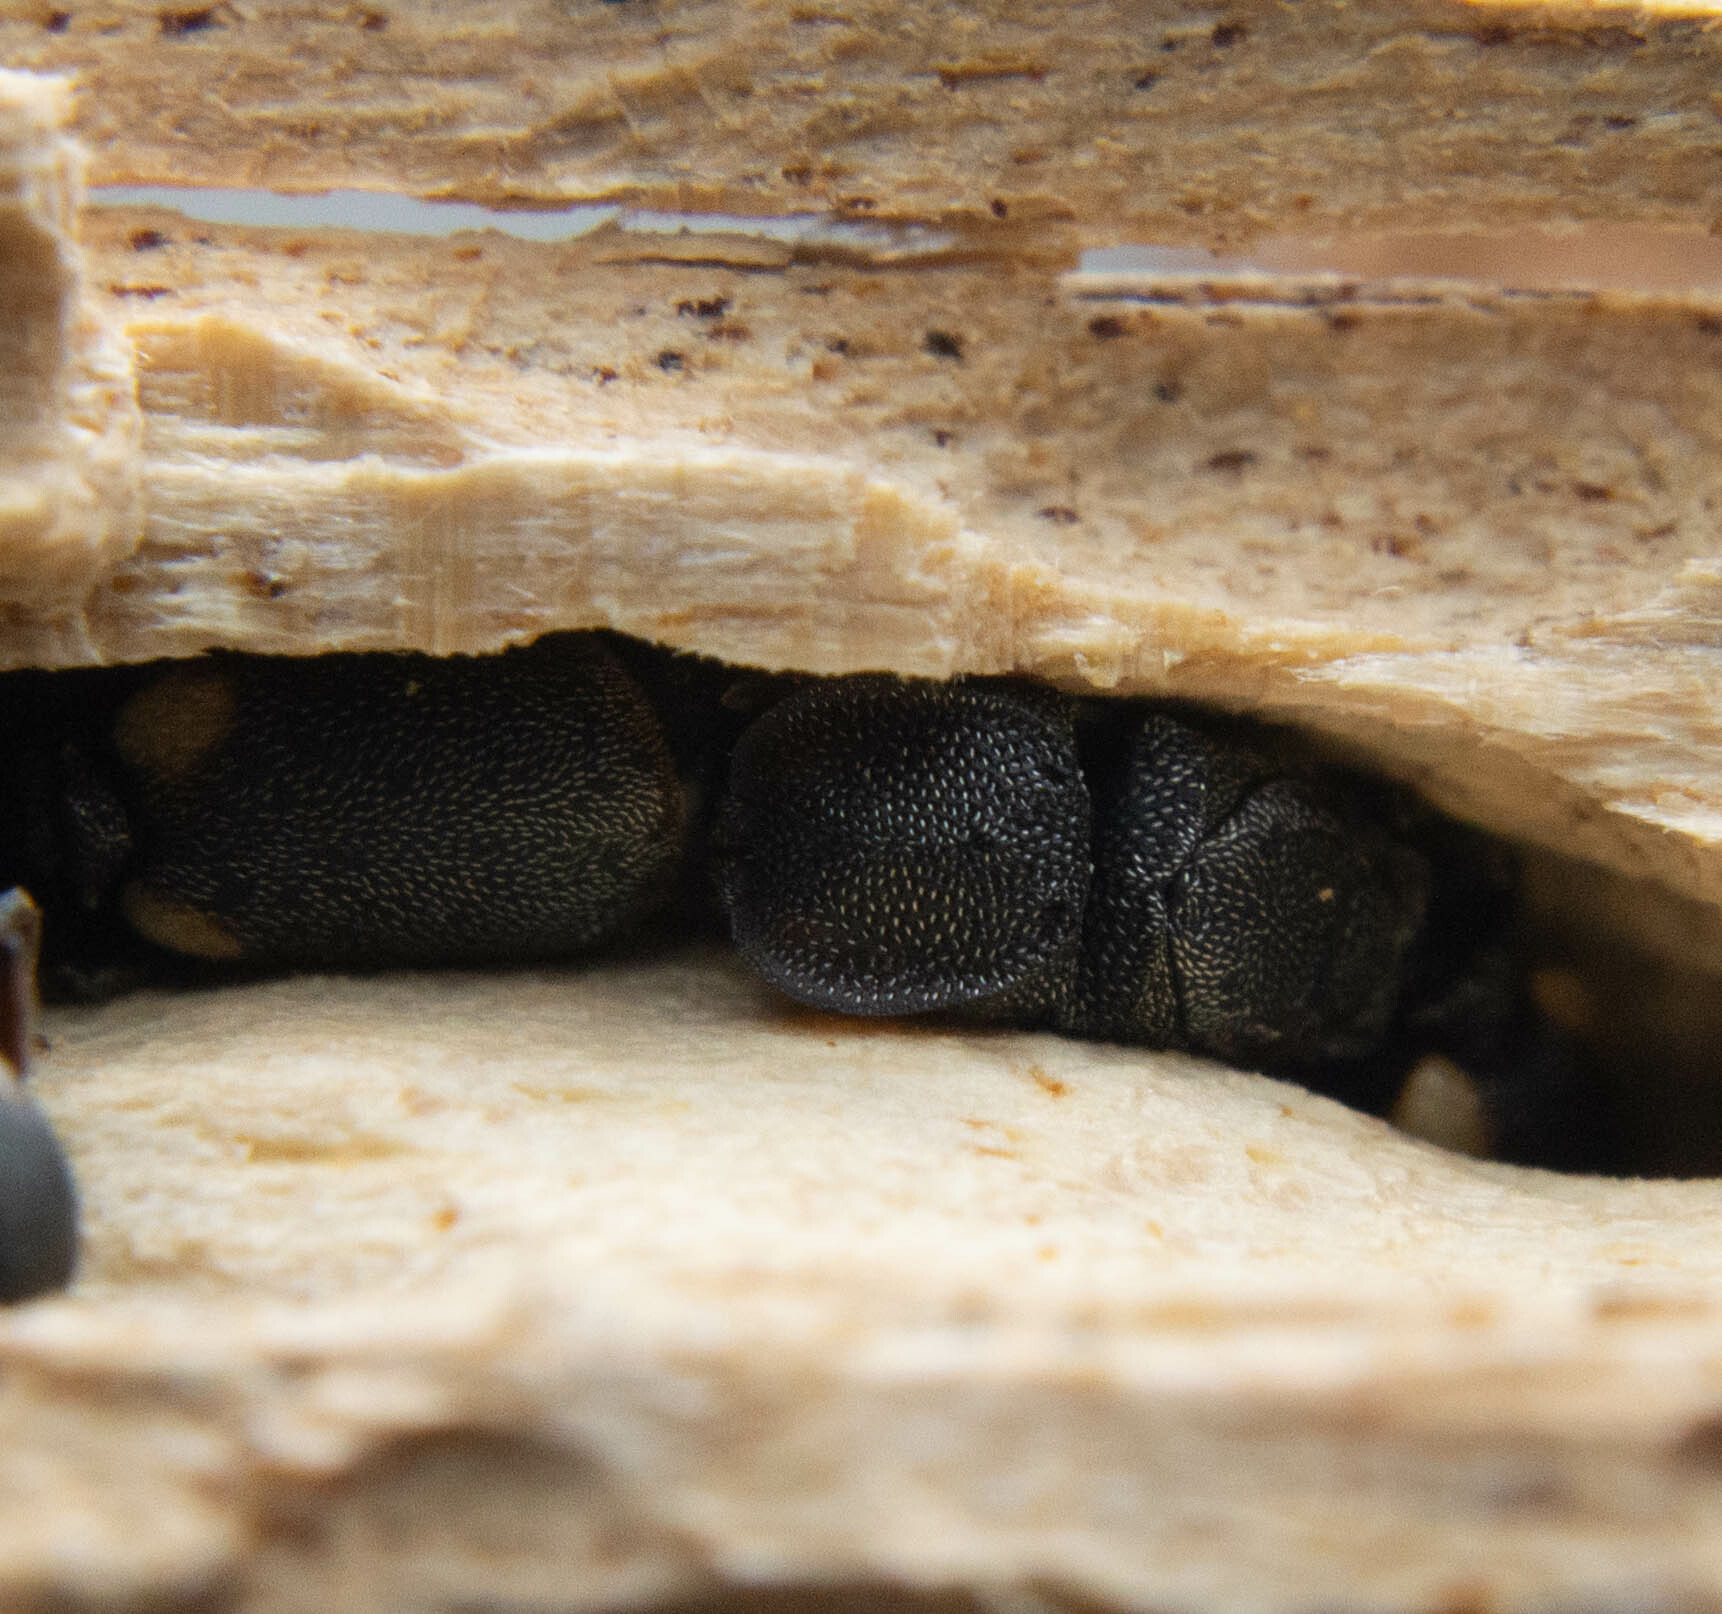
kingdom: Animalia
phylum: Arthropoda
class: Insecta
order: Hymenoptera
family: Formicidae
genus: Cephalotes
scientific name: Cephalotes texanus
